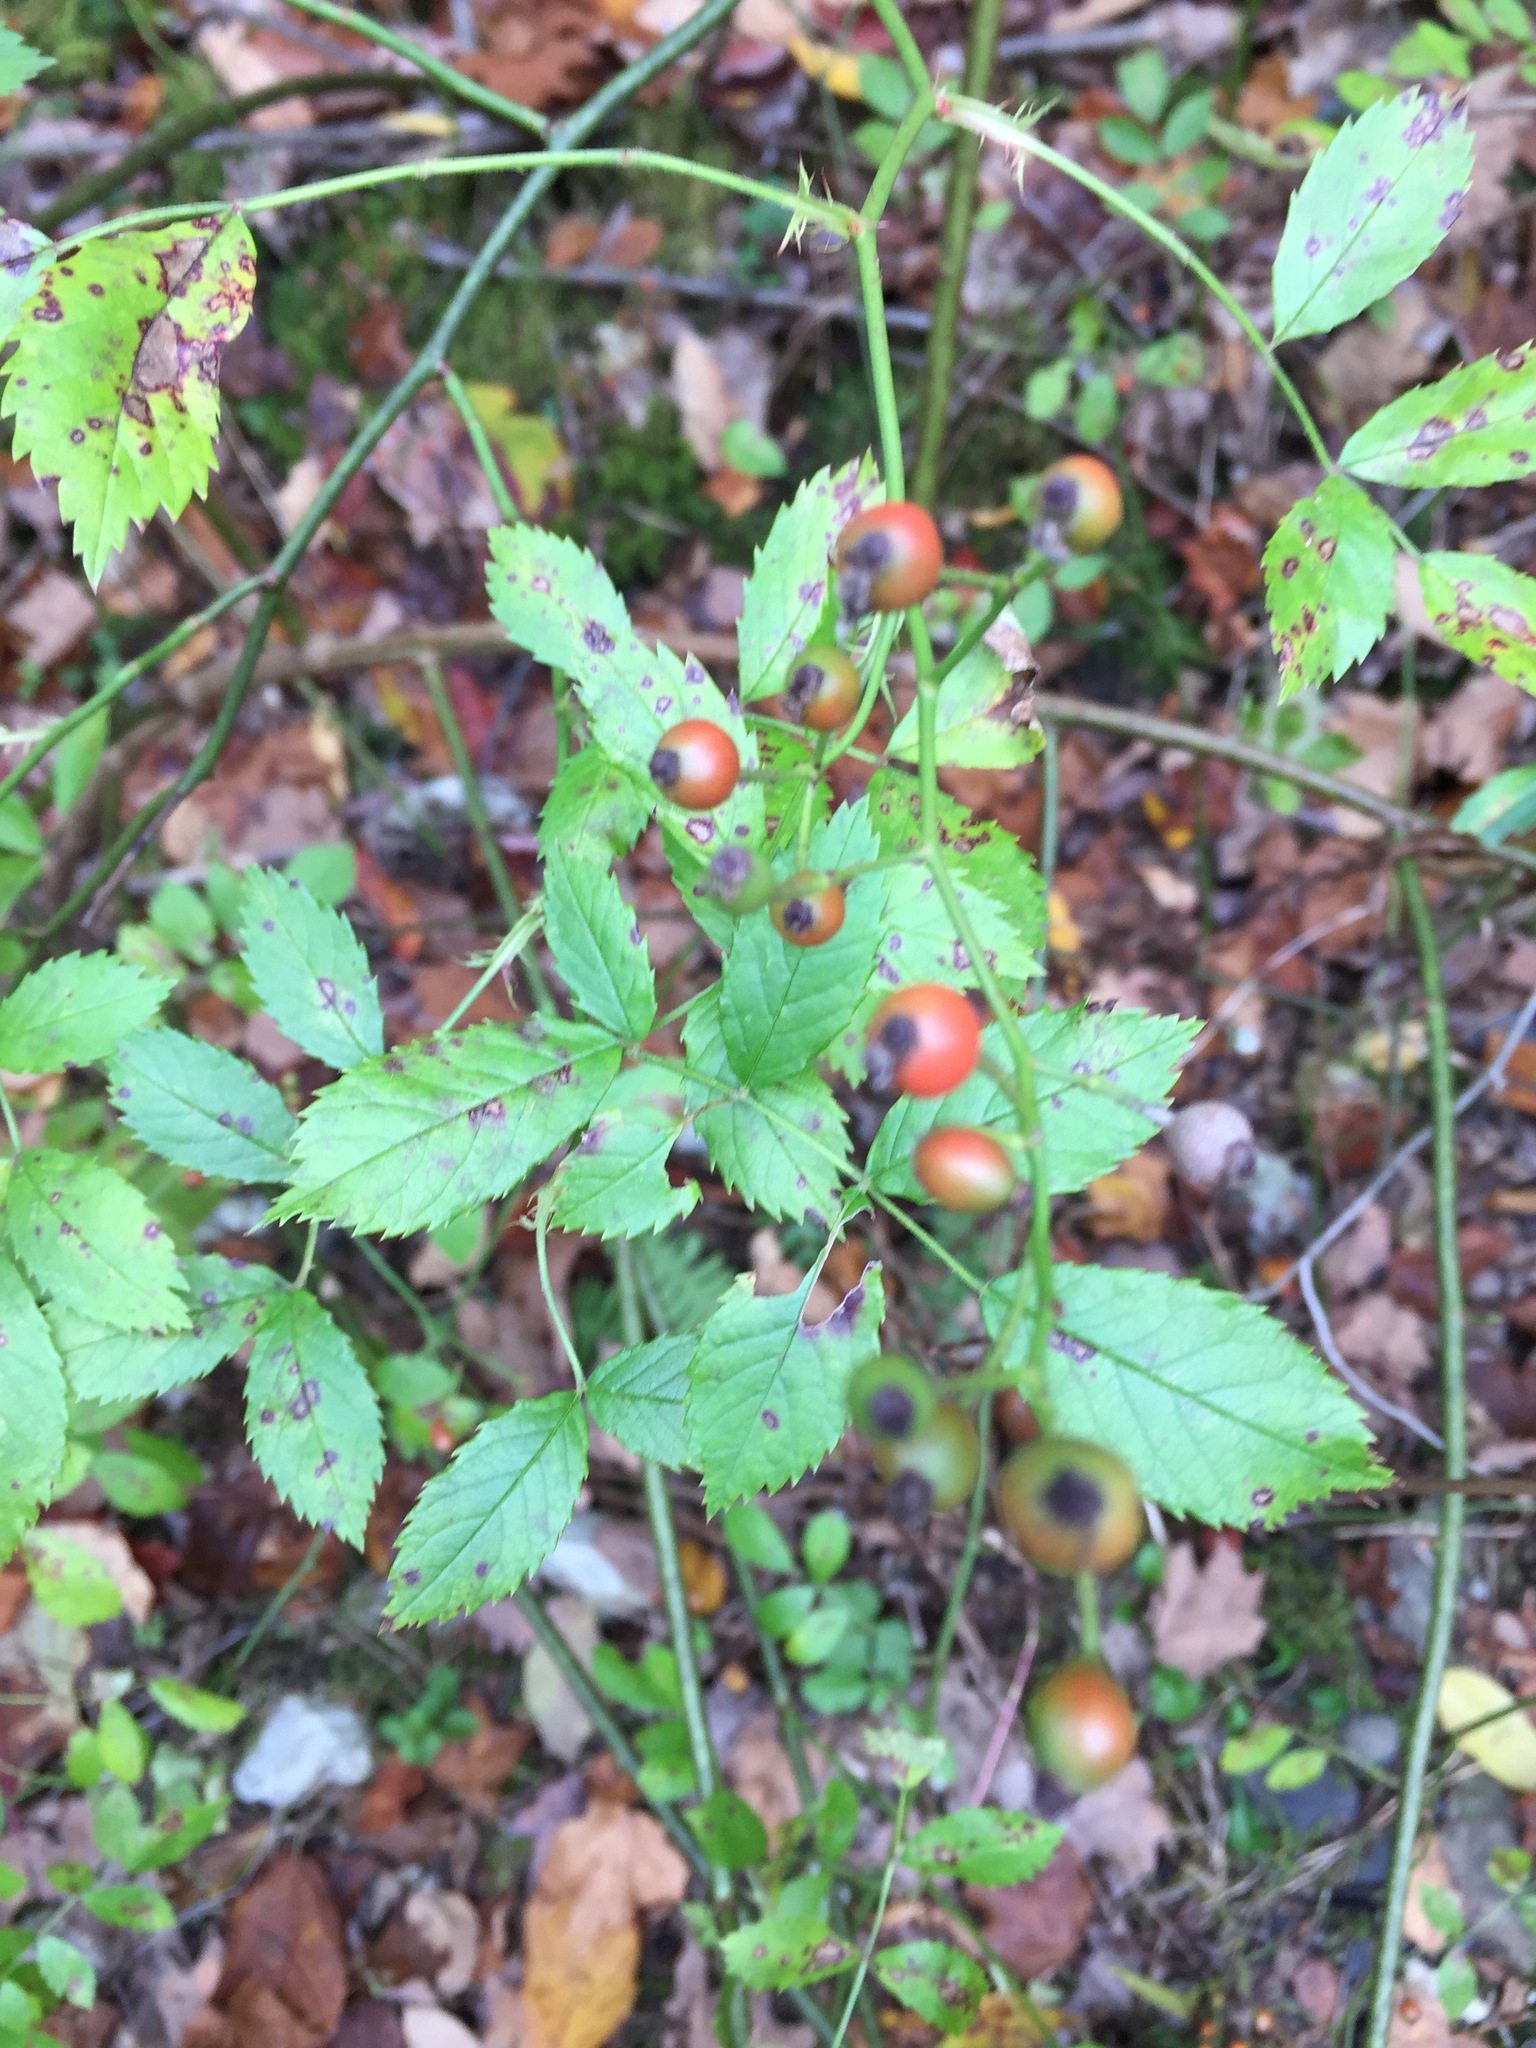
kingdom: Plantae
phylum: Tracheophyta
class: Magnoliopsida
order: Rosales
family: Rosaceae
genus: Rosa
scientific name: Rosa multiflora
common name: Multiflora rose
